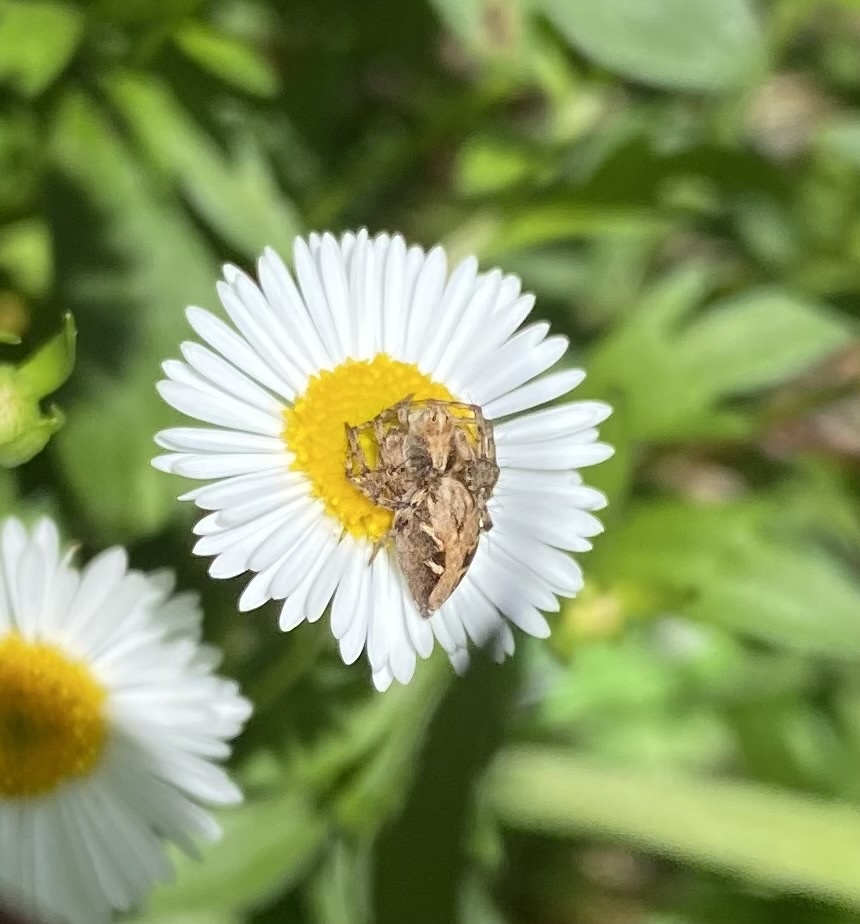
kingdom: Animalia
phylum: Arthropoda
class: Arachnida
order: Araneae
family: Oxyopidae
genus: Oxyopes
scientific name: Oxyopes scalaris
